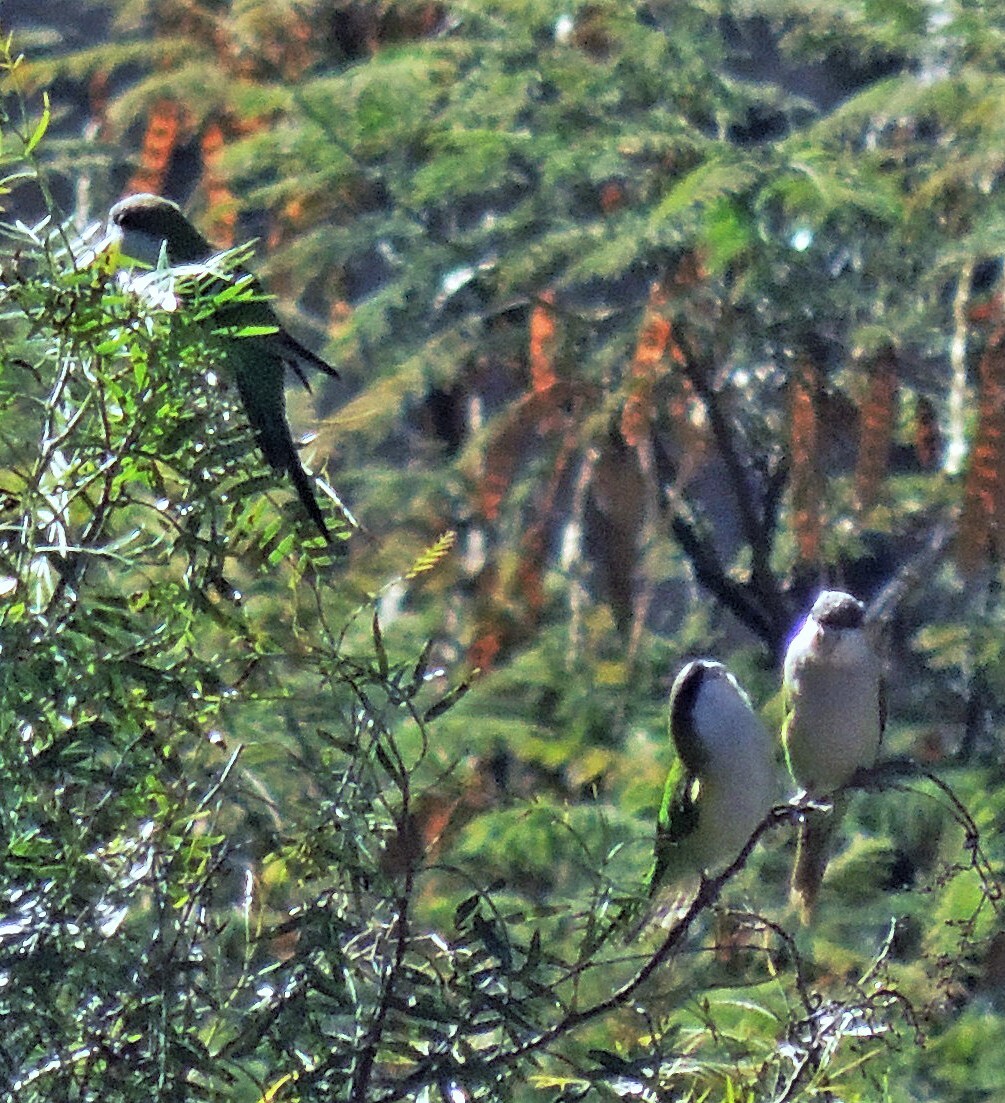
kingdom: Animalia
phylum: Chordata
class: Aves
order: Psittaciformes
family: Psittacidae
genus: Psilopsiagon
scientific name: Psilopsiagon aymara
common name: Grey-hooded parakeet
